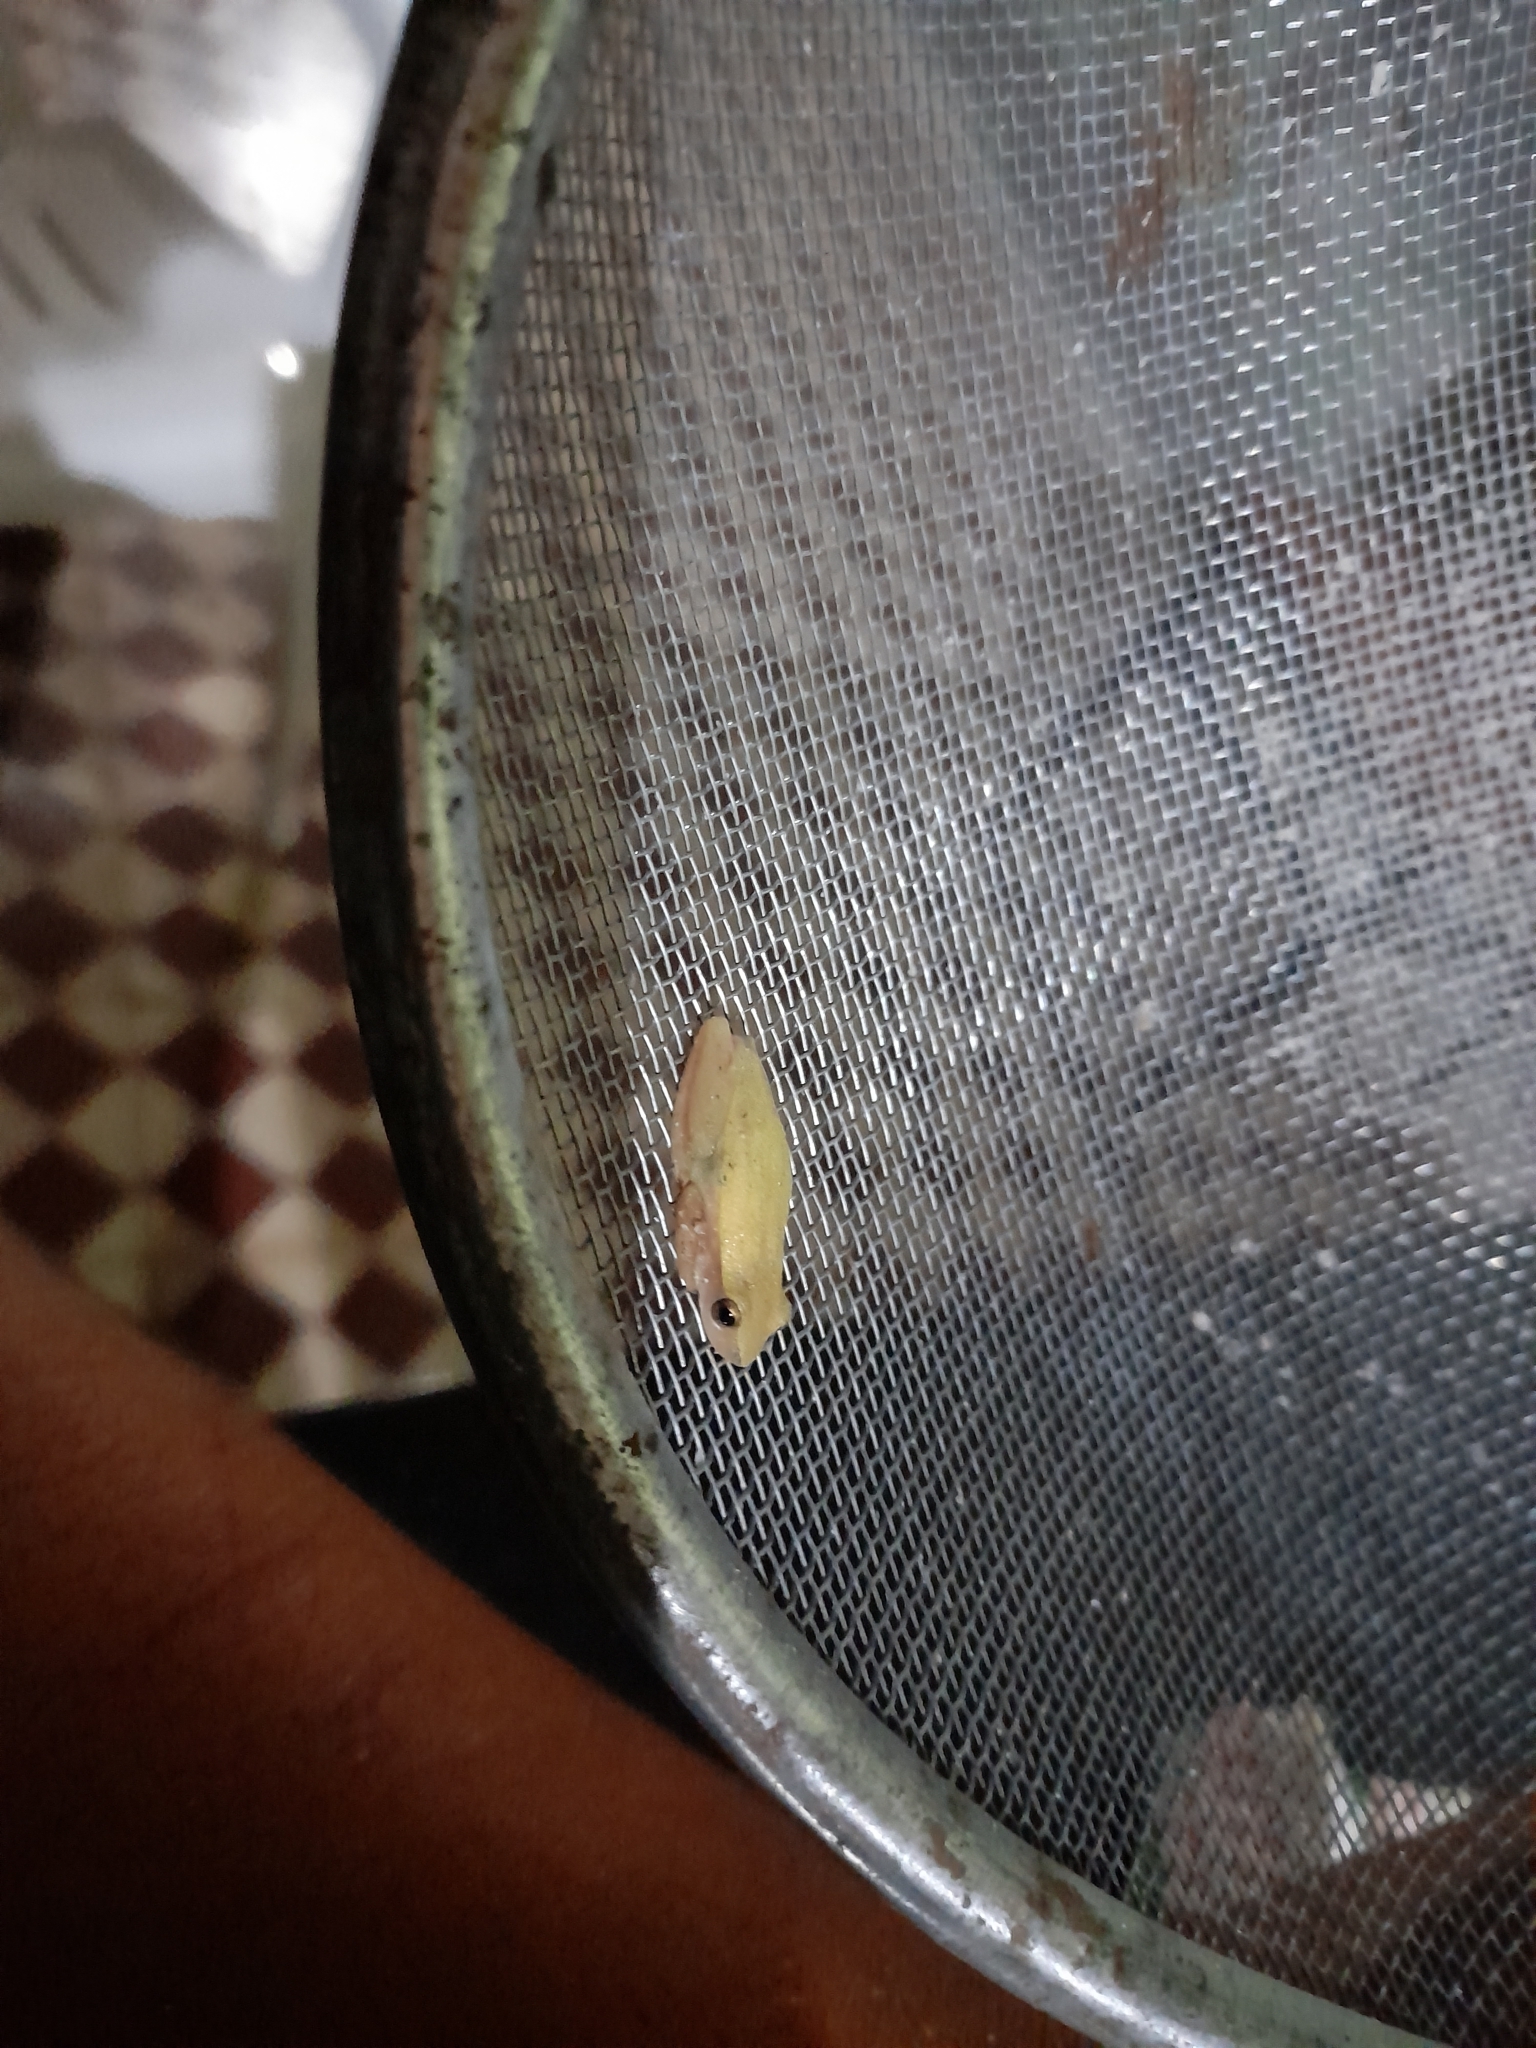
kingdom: Animalia
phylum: Chordata
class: Amphibia
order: Anura
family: Hylidae
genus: Dendropsophus
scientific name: Dendropsophus nanus
